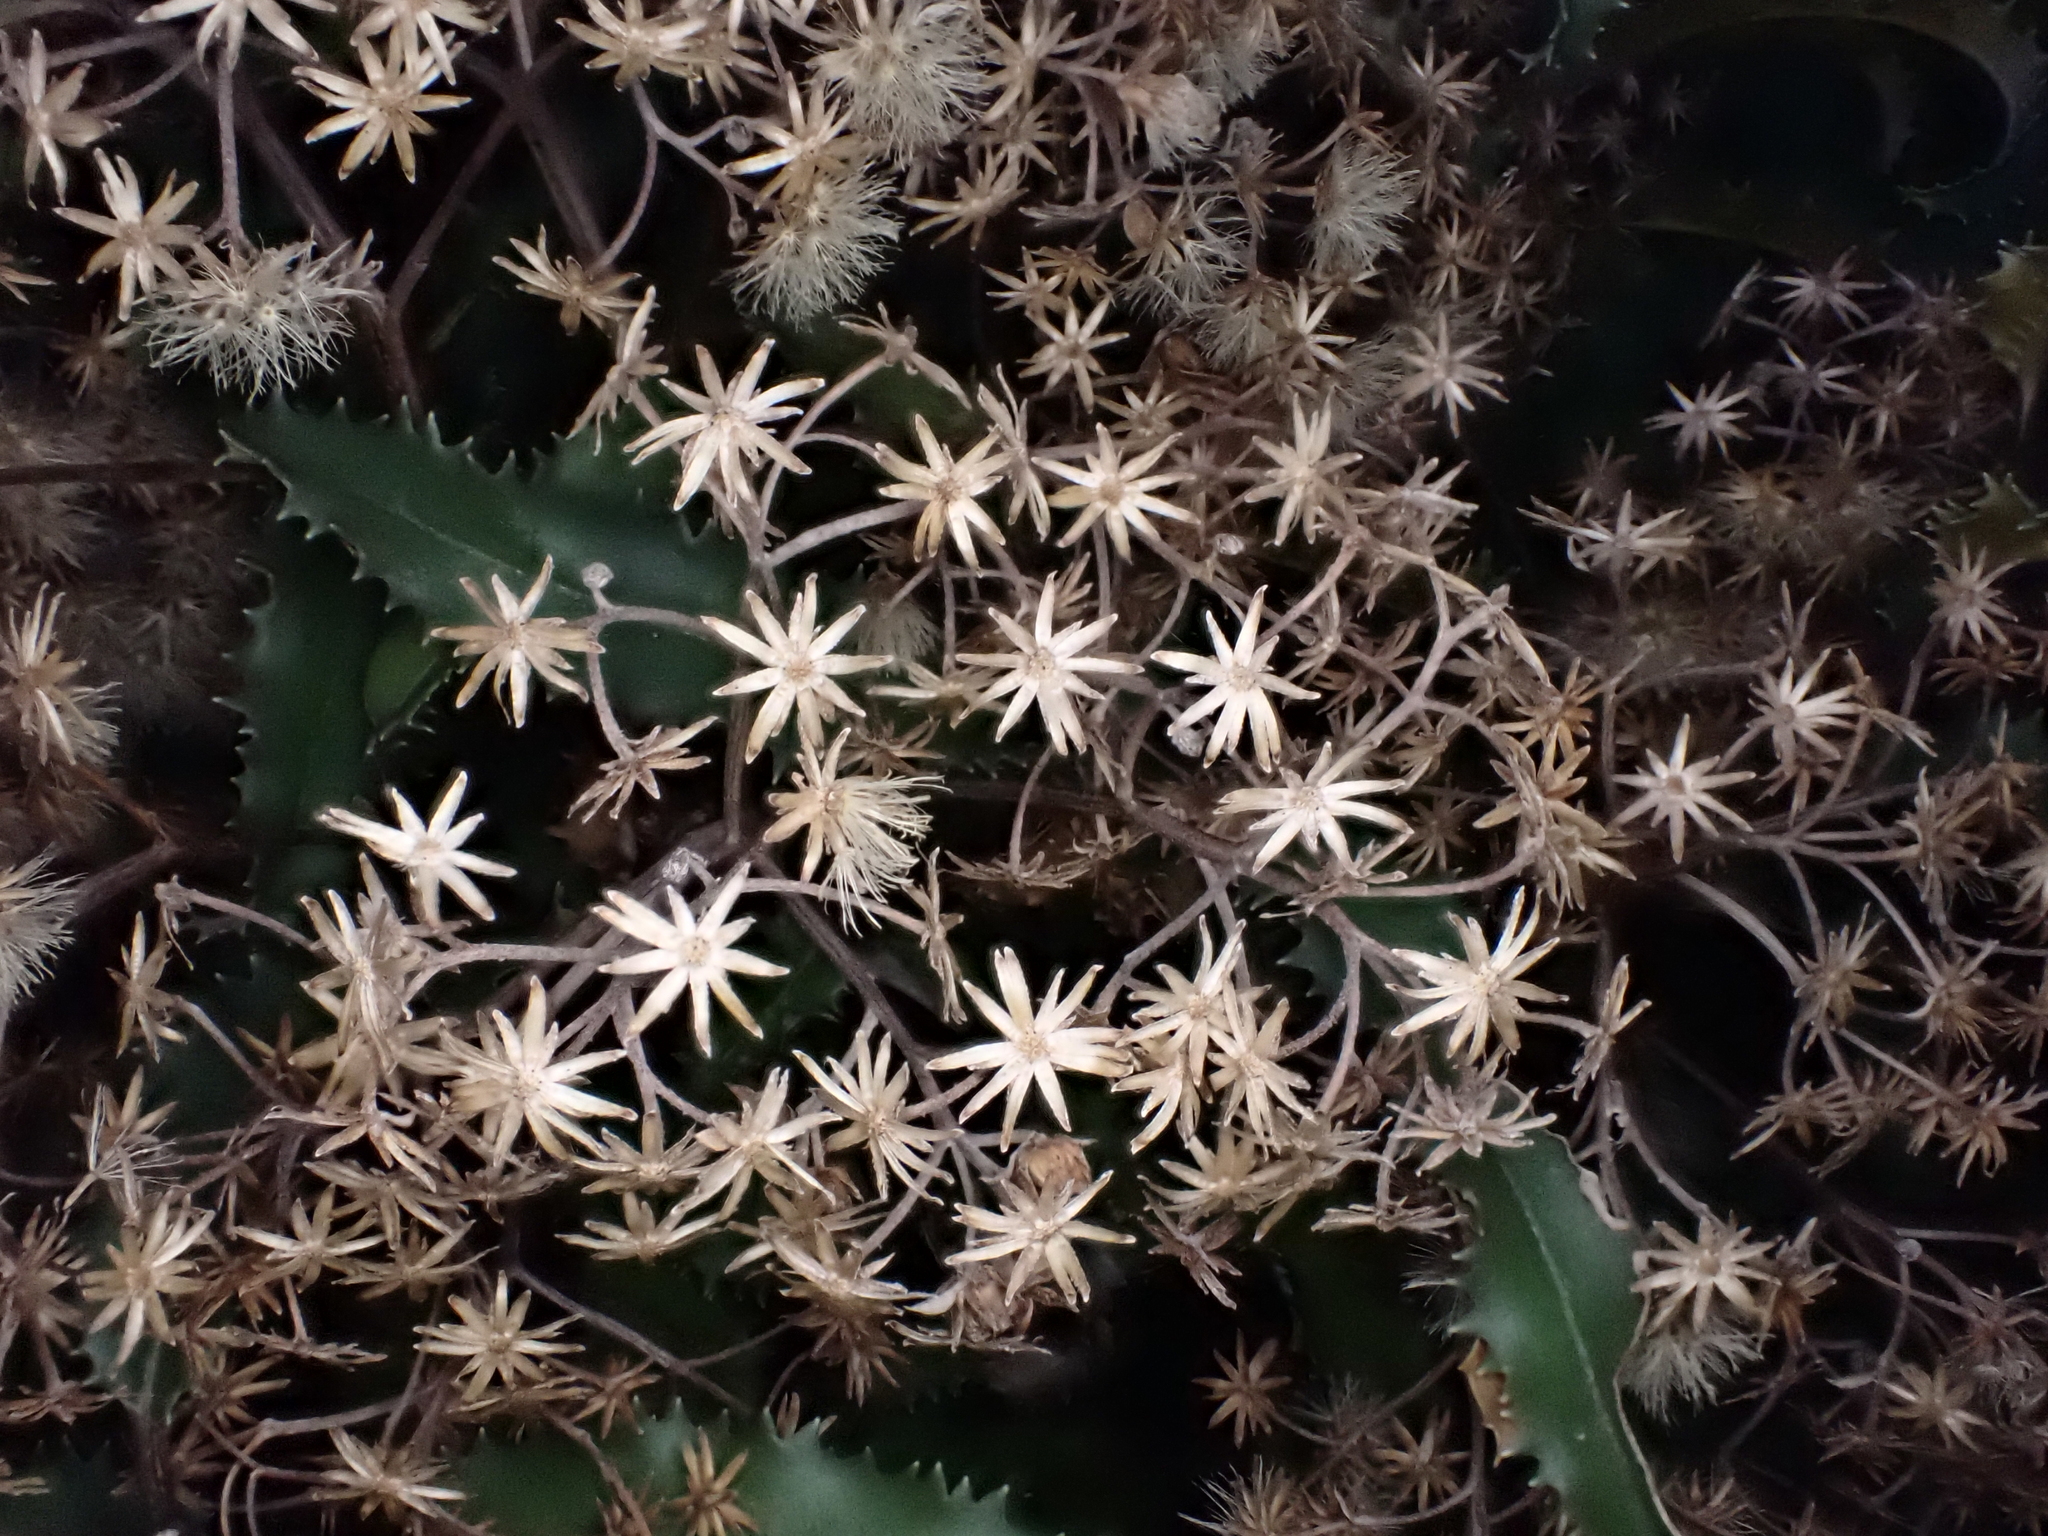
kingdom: Plantae
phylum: Tracheophyta
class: Magnoliopsida
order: Asterales
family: Asteraceae
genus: Olearia
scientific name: Olearia ilicifolia
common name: Maori-holly
